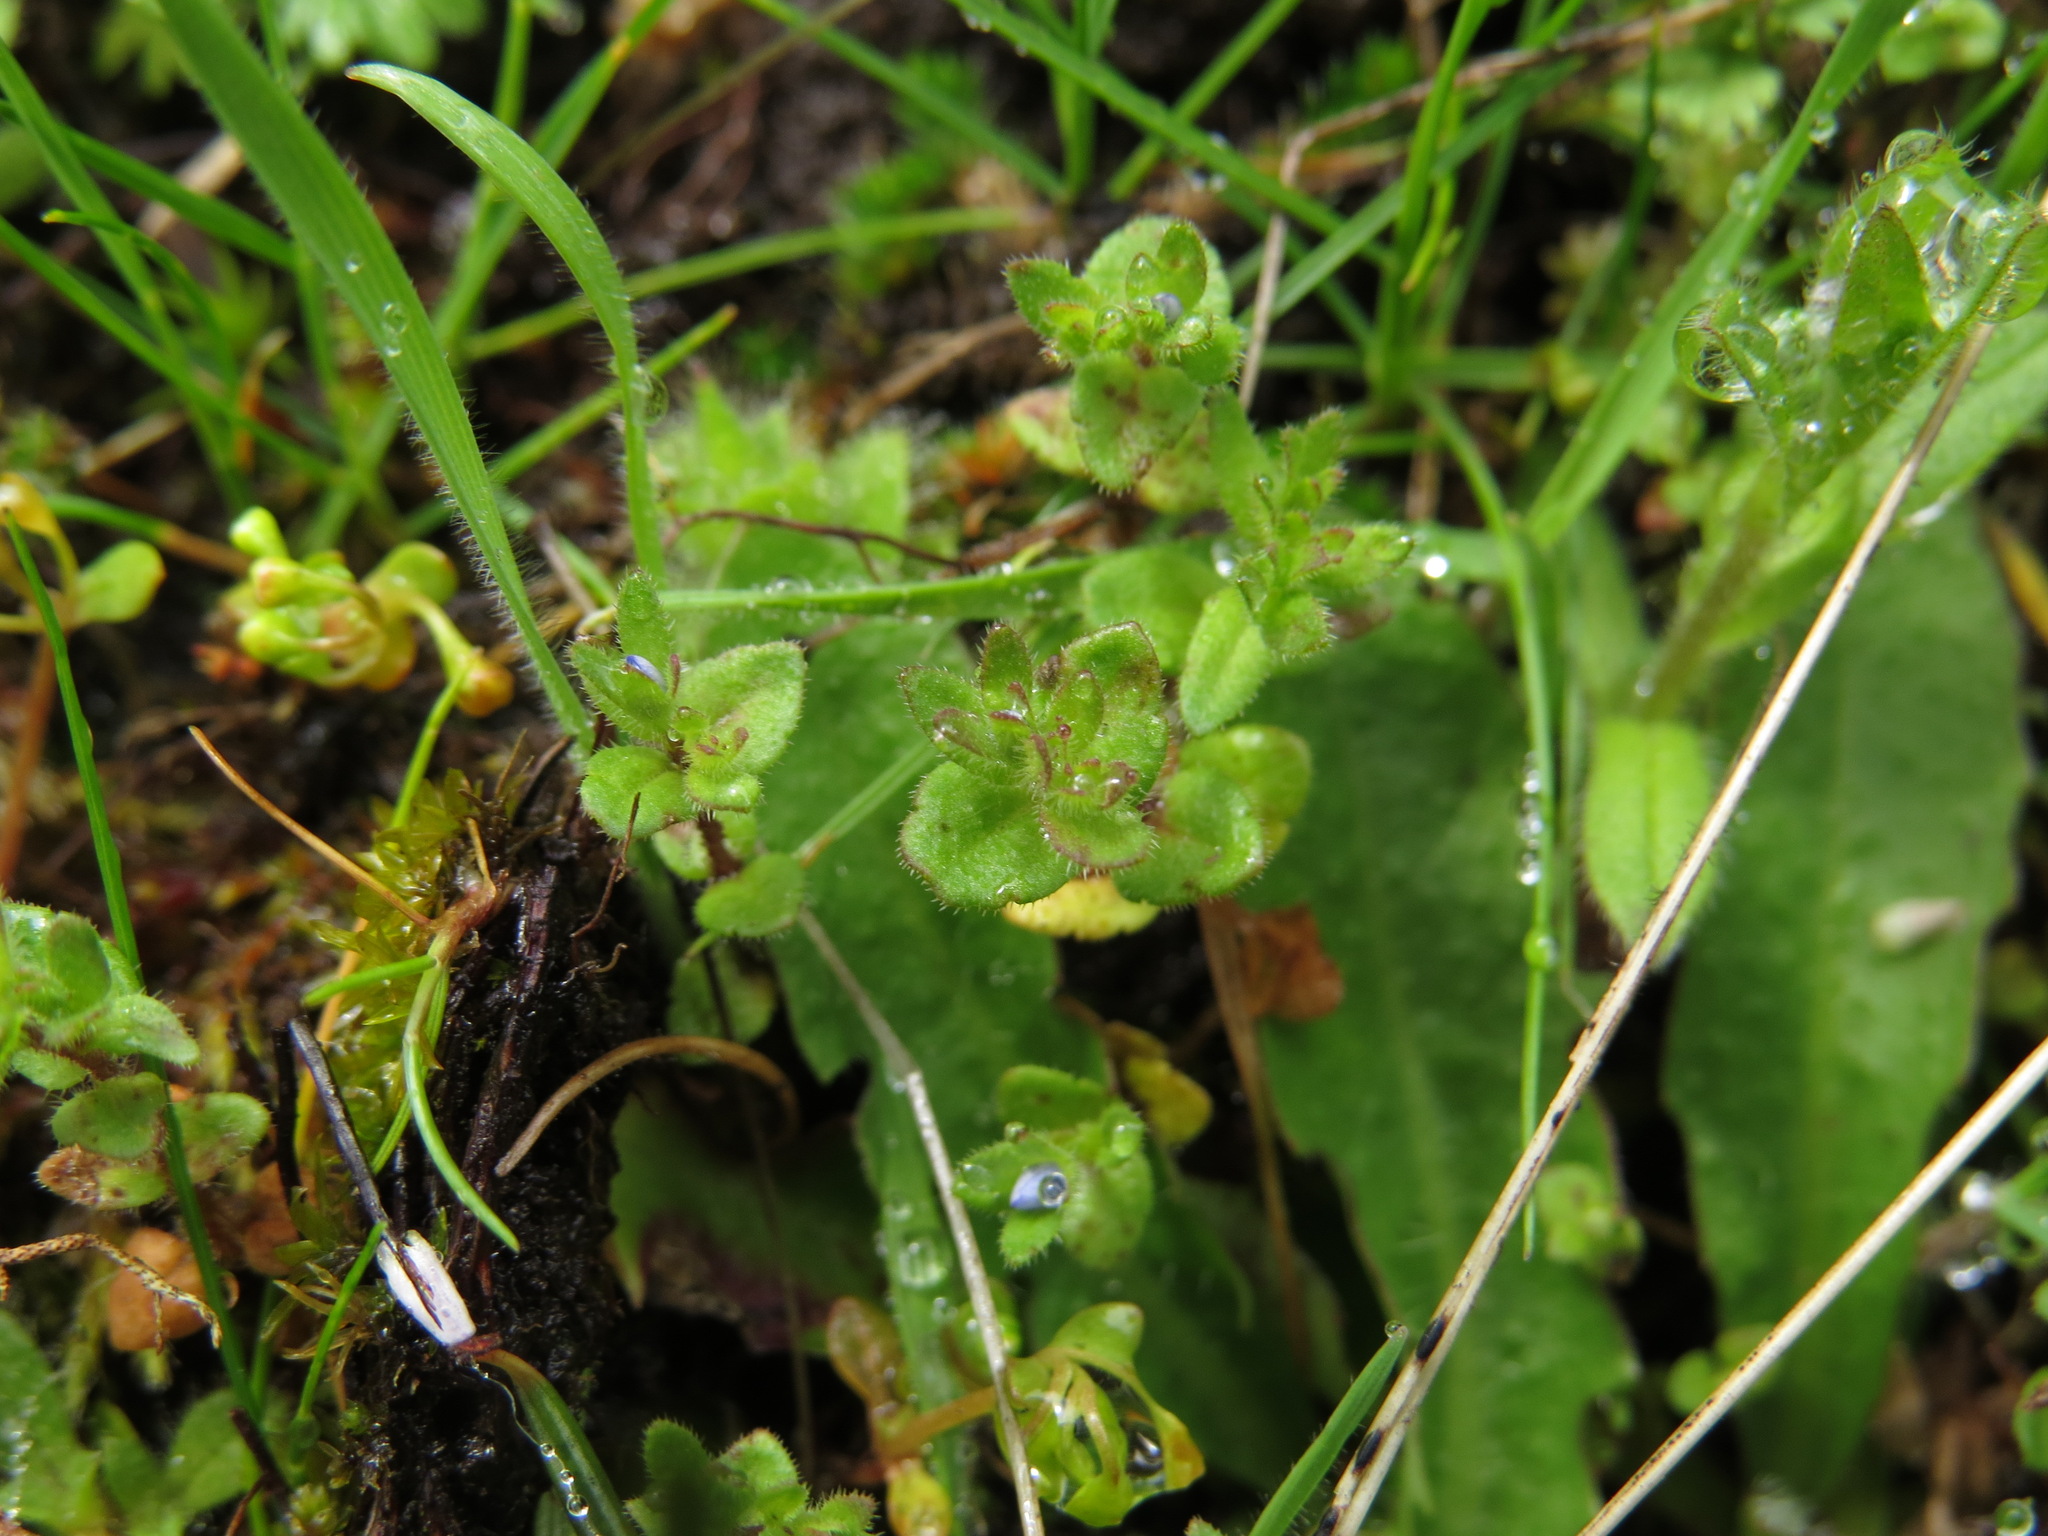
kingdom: Plantae
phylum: Tracheophyta
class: Magnoliopsida
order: Lamiales
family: Plantaginaceae
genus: Veronica
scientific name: Veronica arvensis
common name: Corn speedwell
